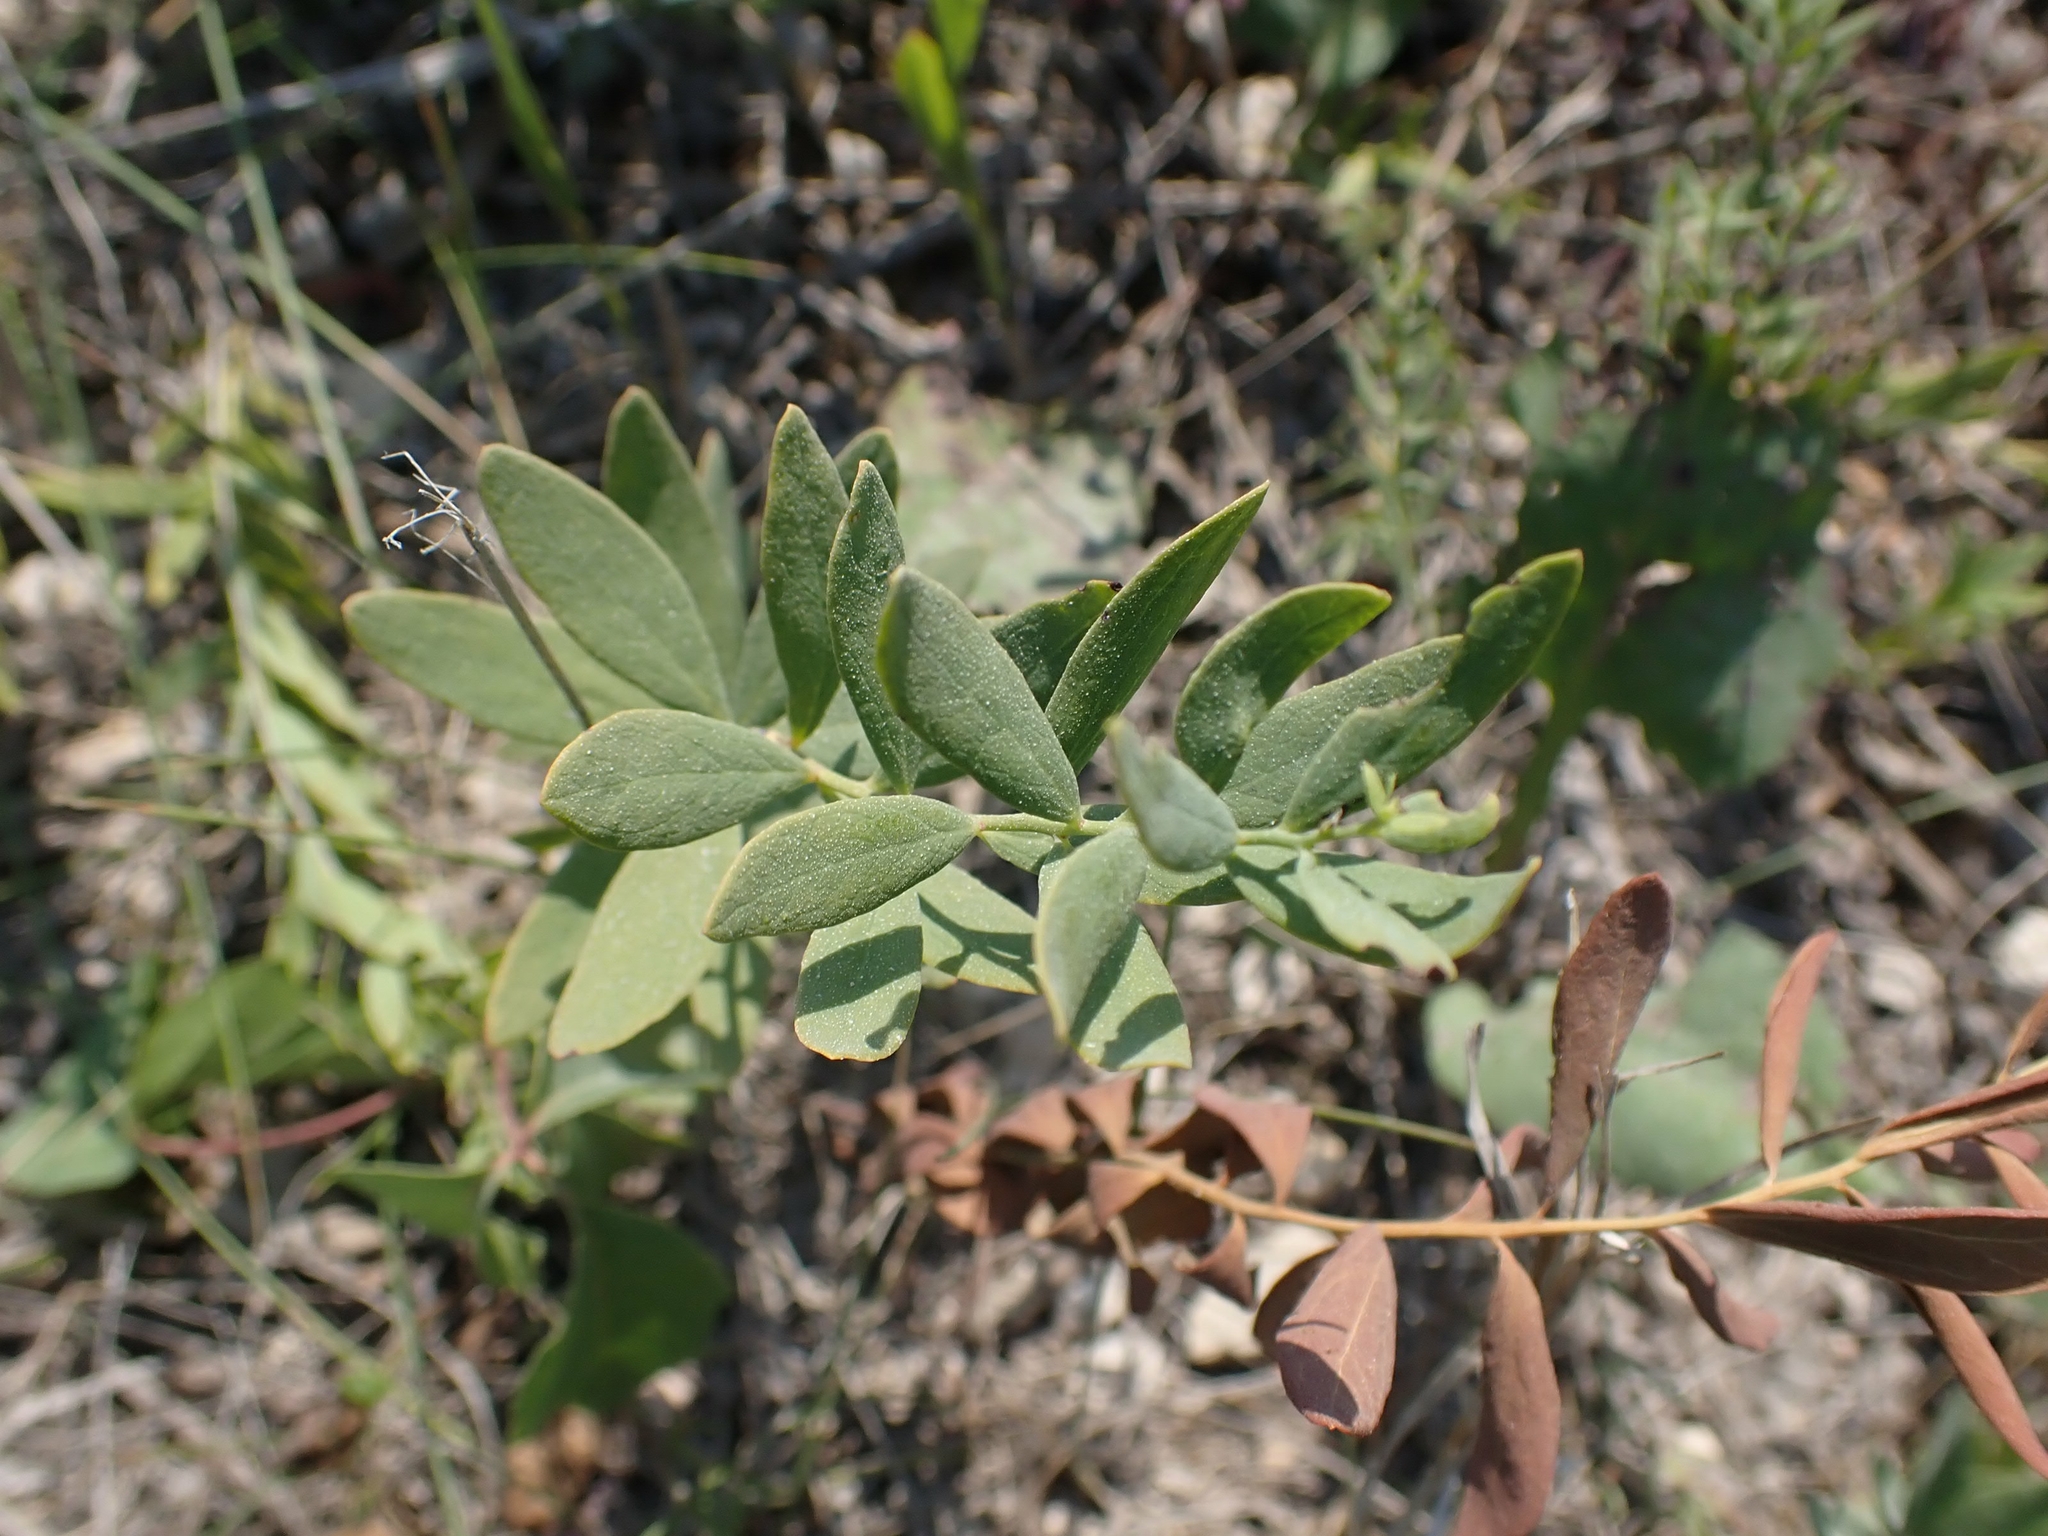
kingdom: Plantae
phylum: Tracheophyta
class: Magnoliopsida
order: Santalales
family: Comandraceae
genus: Comandra
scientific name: Comandra umbellata
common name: Bastard toadflax
